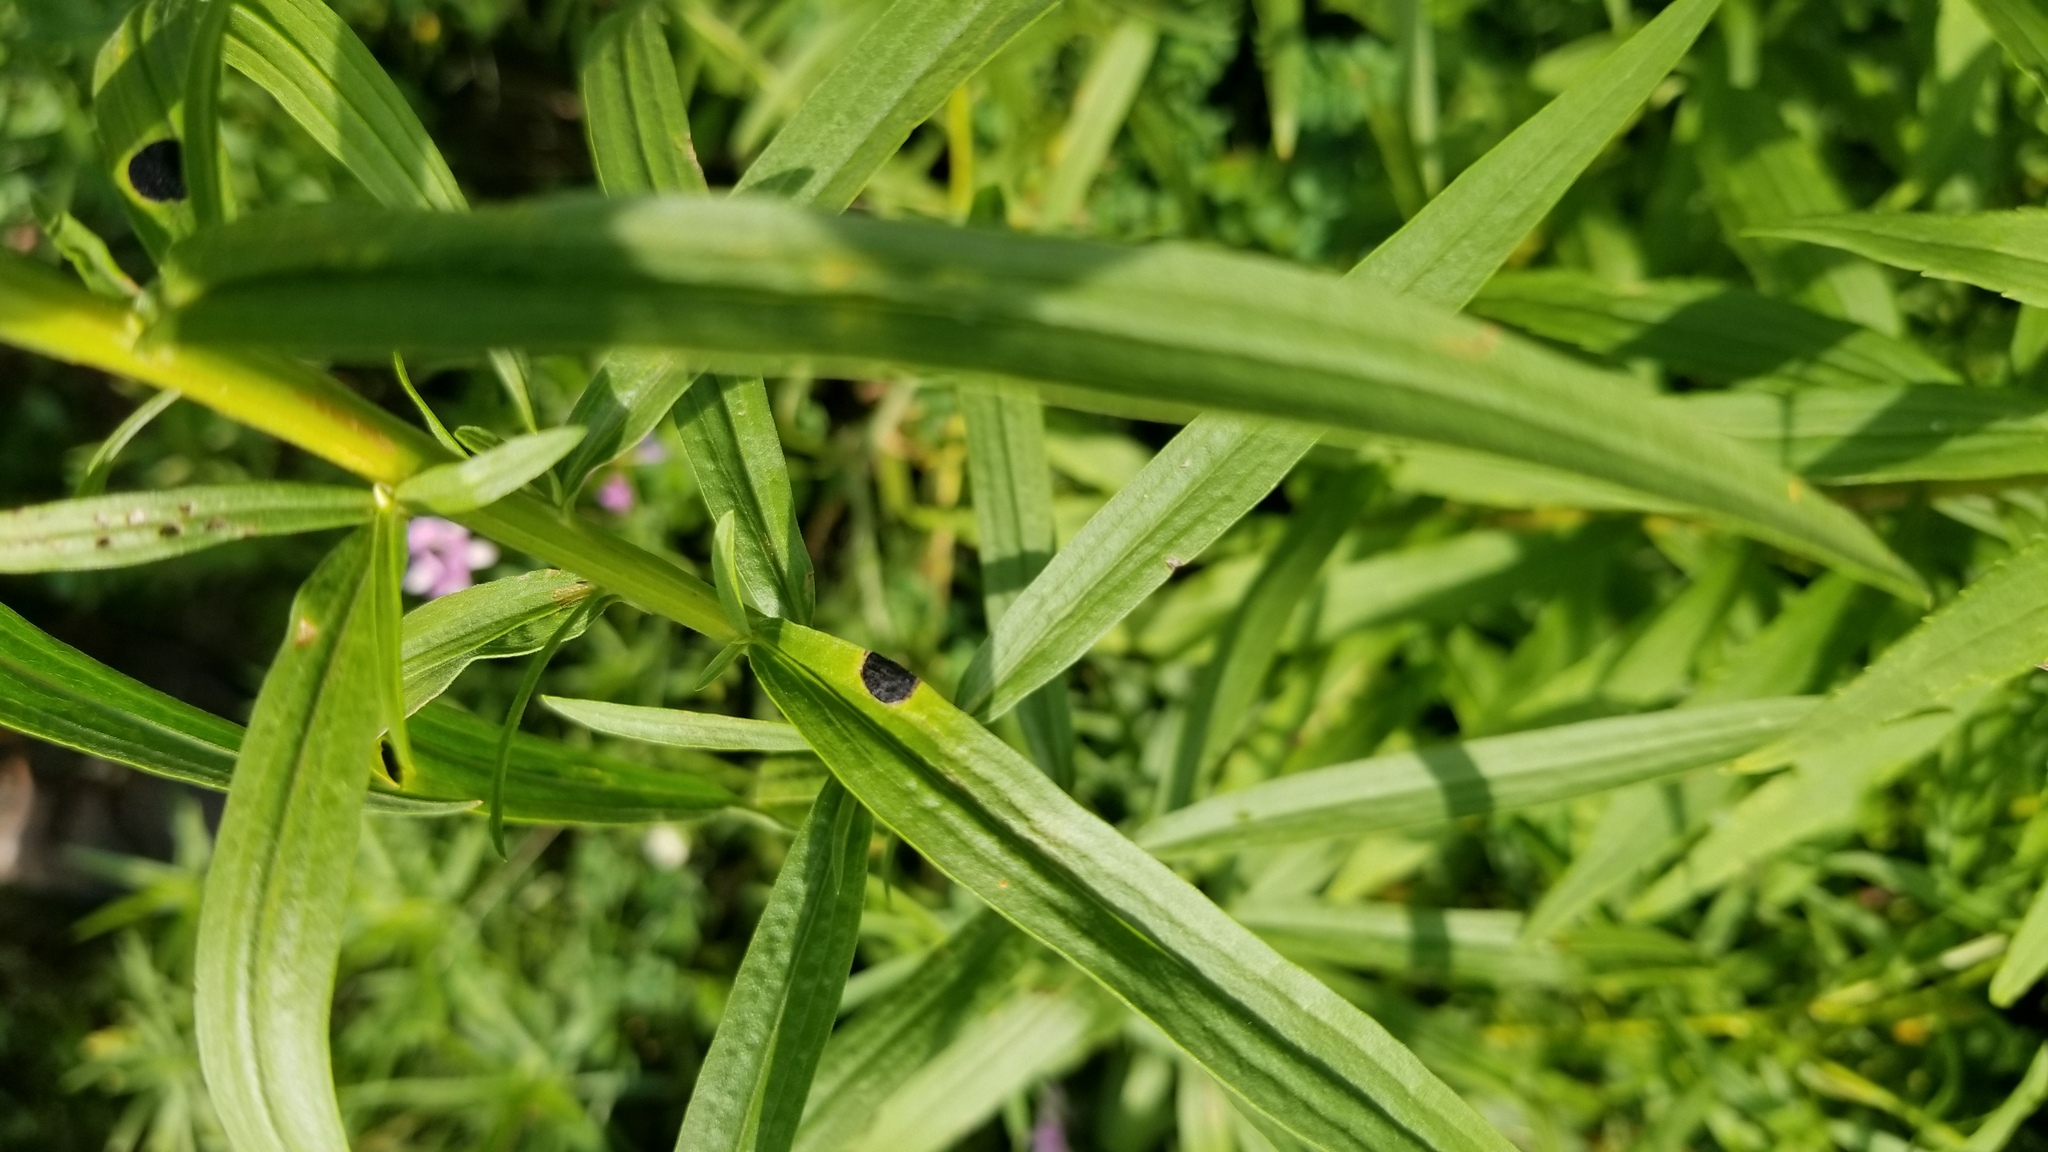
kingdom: Animalia
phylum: Arthropoda
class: Insecta
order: Diptera
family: Cecidomyiidae
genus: Asteromyia
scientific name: Asteromyia euthamiae
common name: Euthamia leaf gall midge
